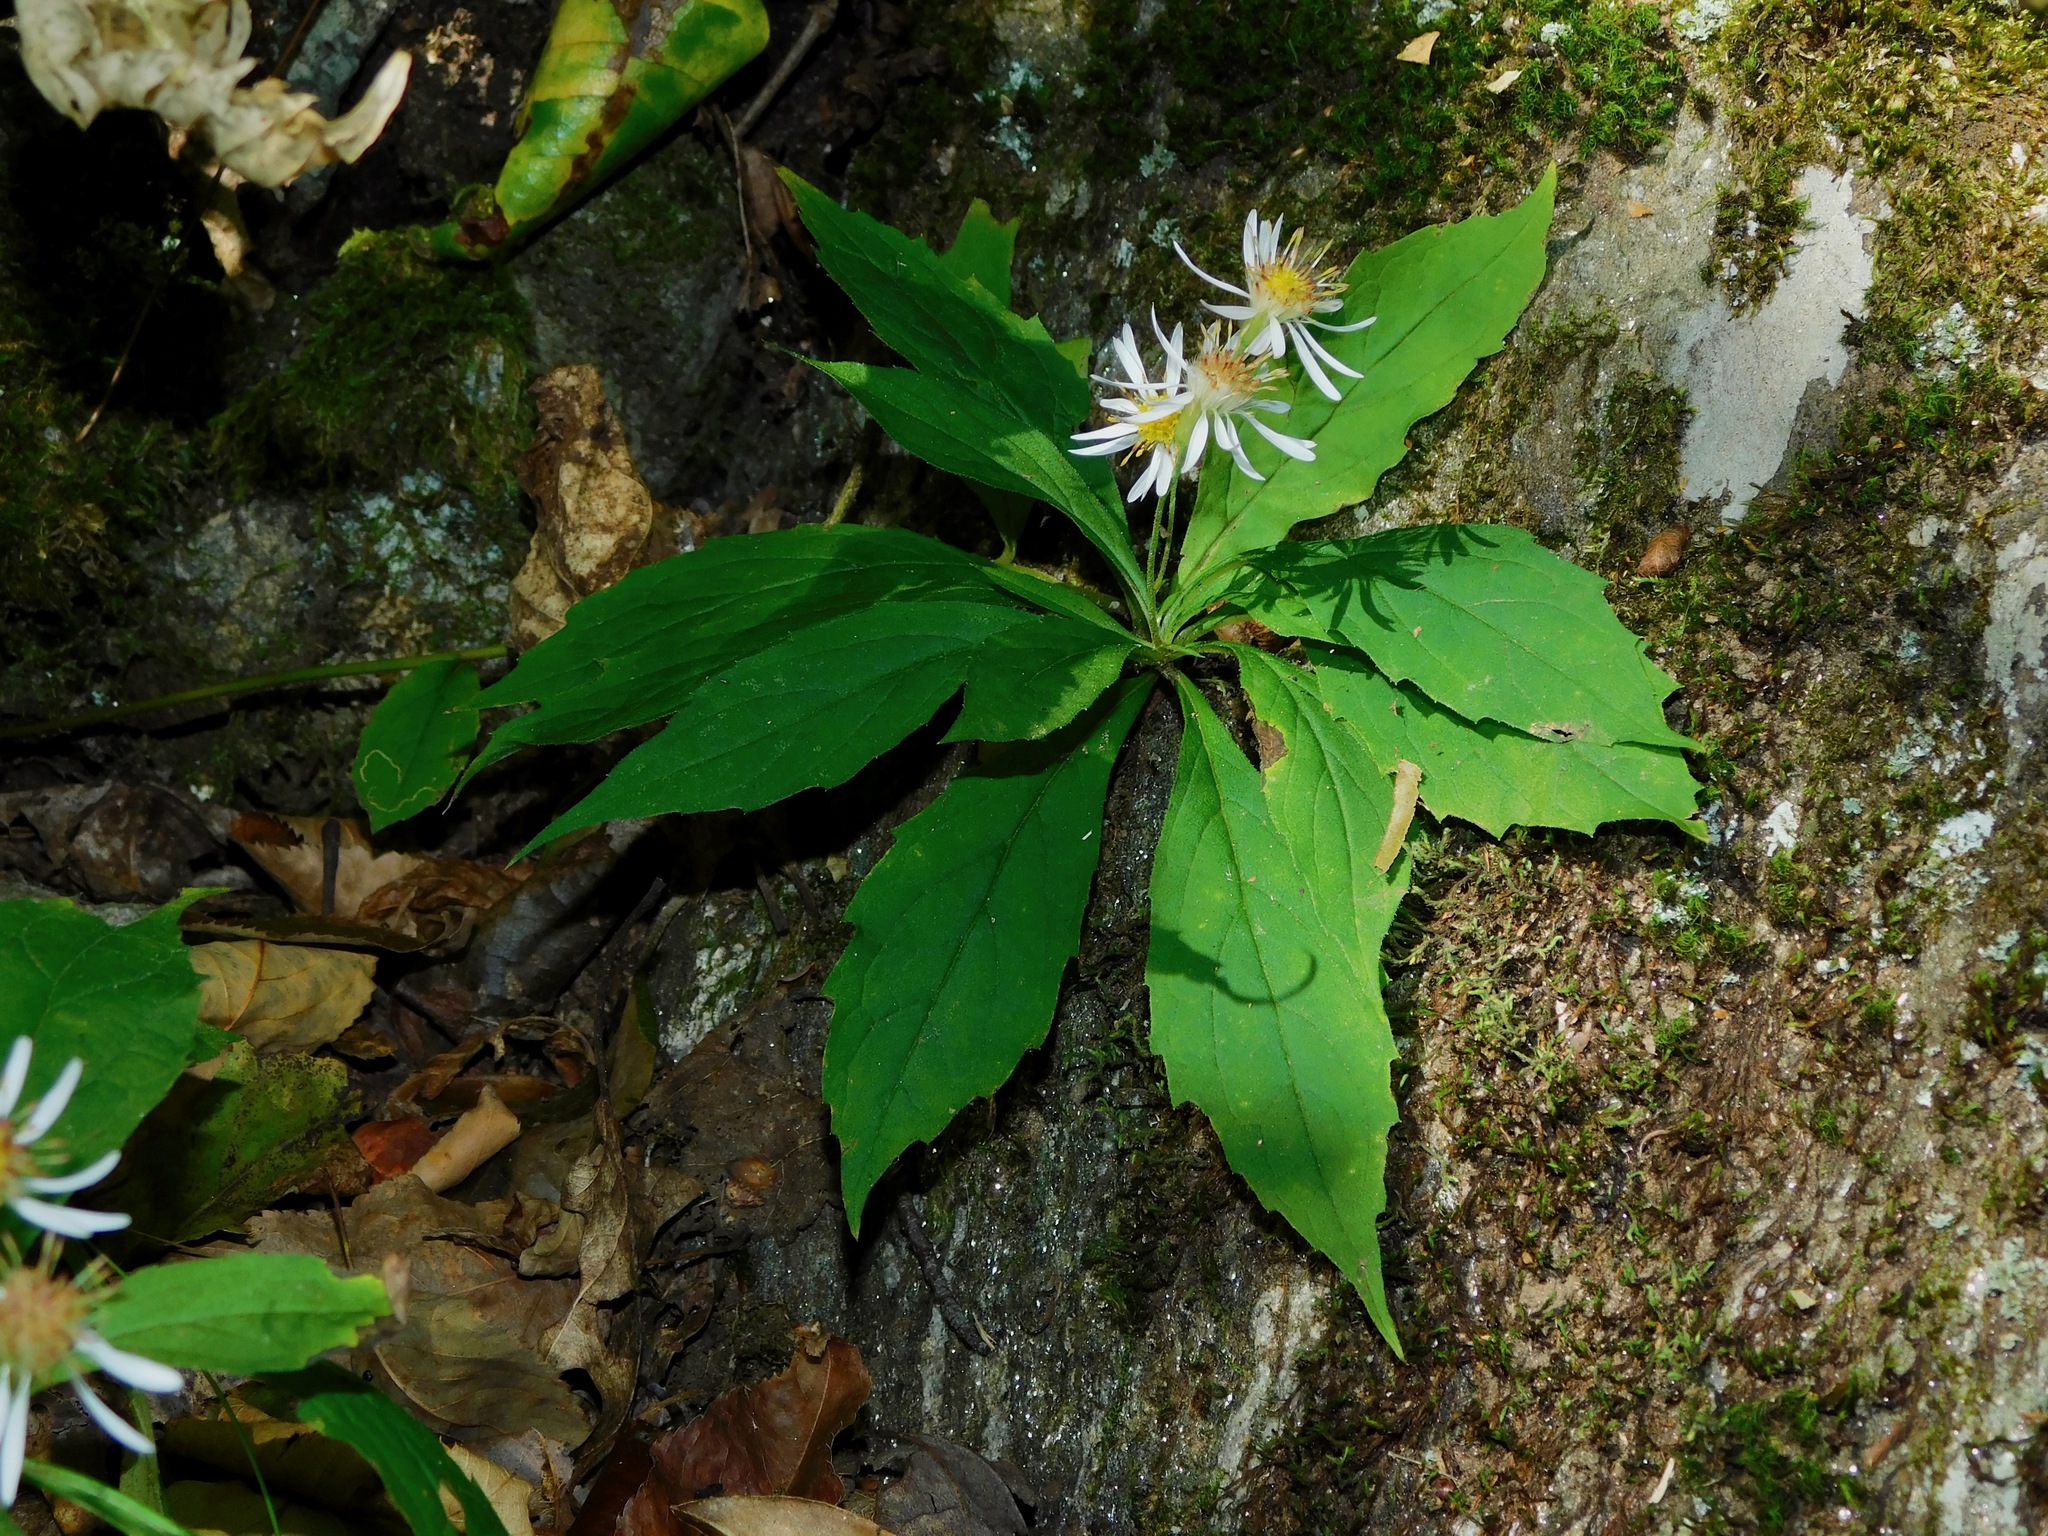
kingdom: Plantae
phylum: Tracheophyta
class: Magnoliopsida
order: Asterales
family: Asteraceae
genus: Oclemena
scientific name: Oclemena acuminata
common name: Mountain aster
